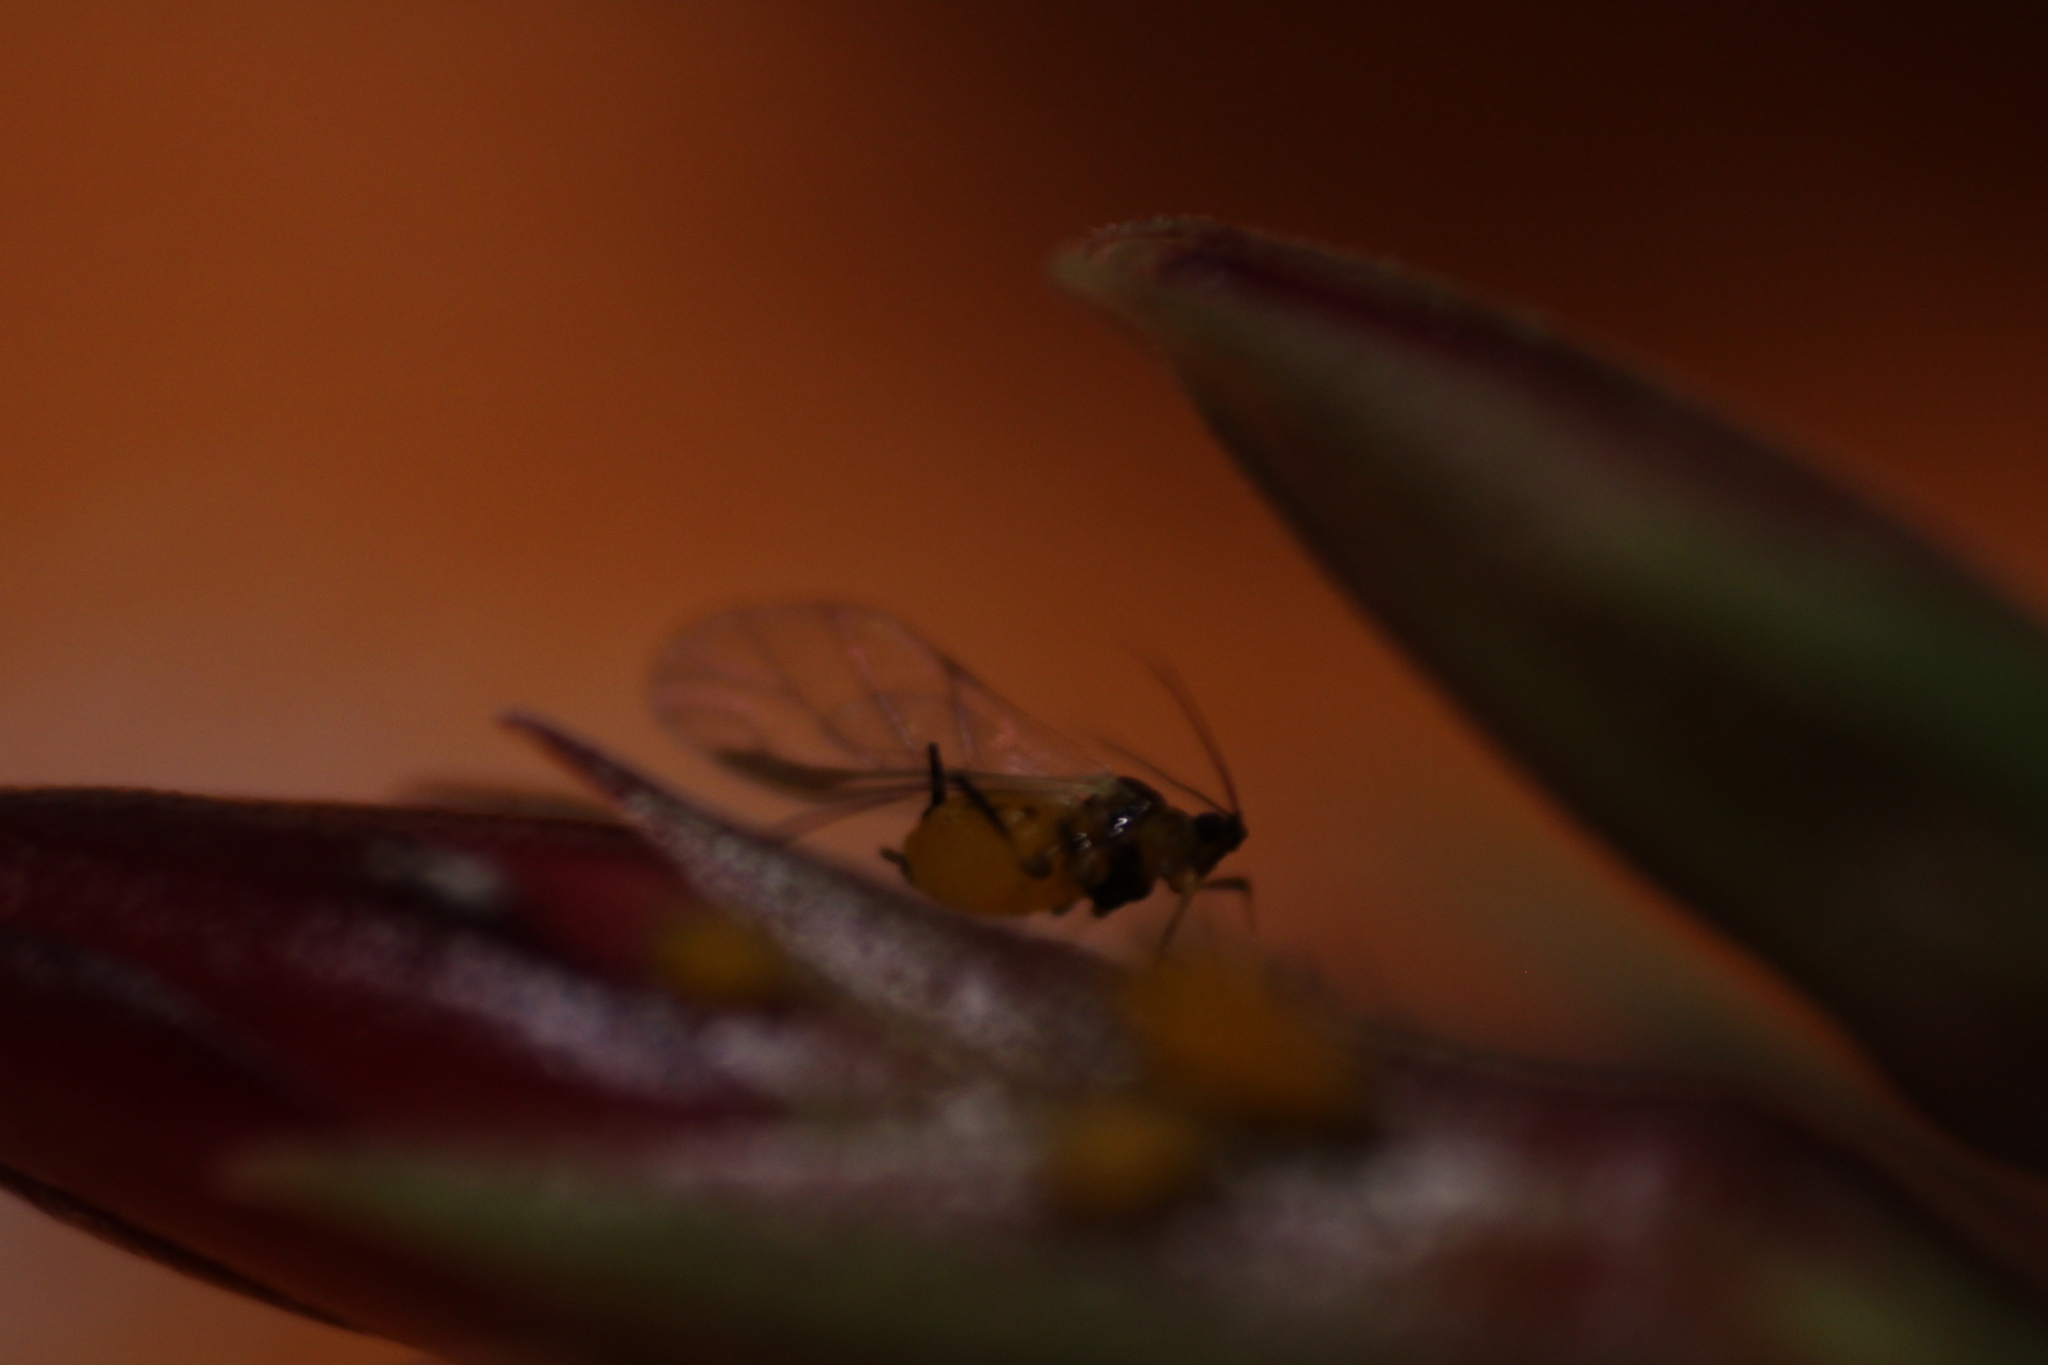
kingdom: Animalia
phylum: Arthropoda
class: Insecta
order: Hemiptera
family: Aphididae
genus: Aphis
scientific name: Aphis nerii
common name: Oleander aphid
